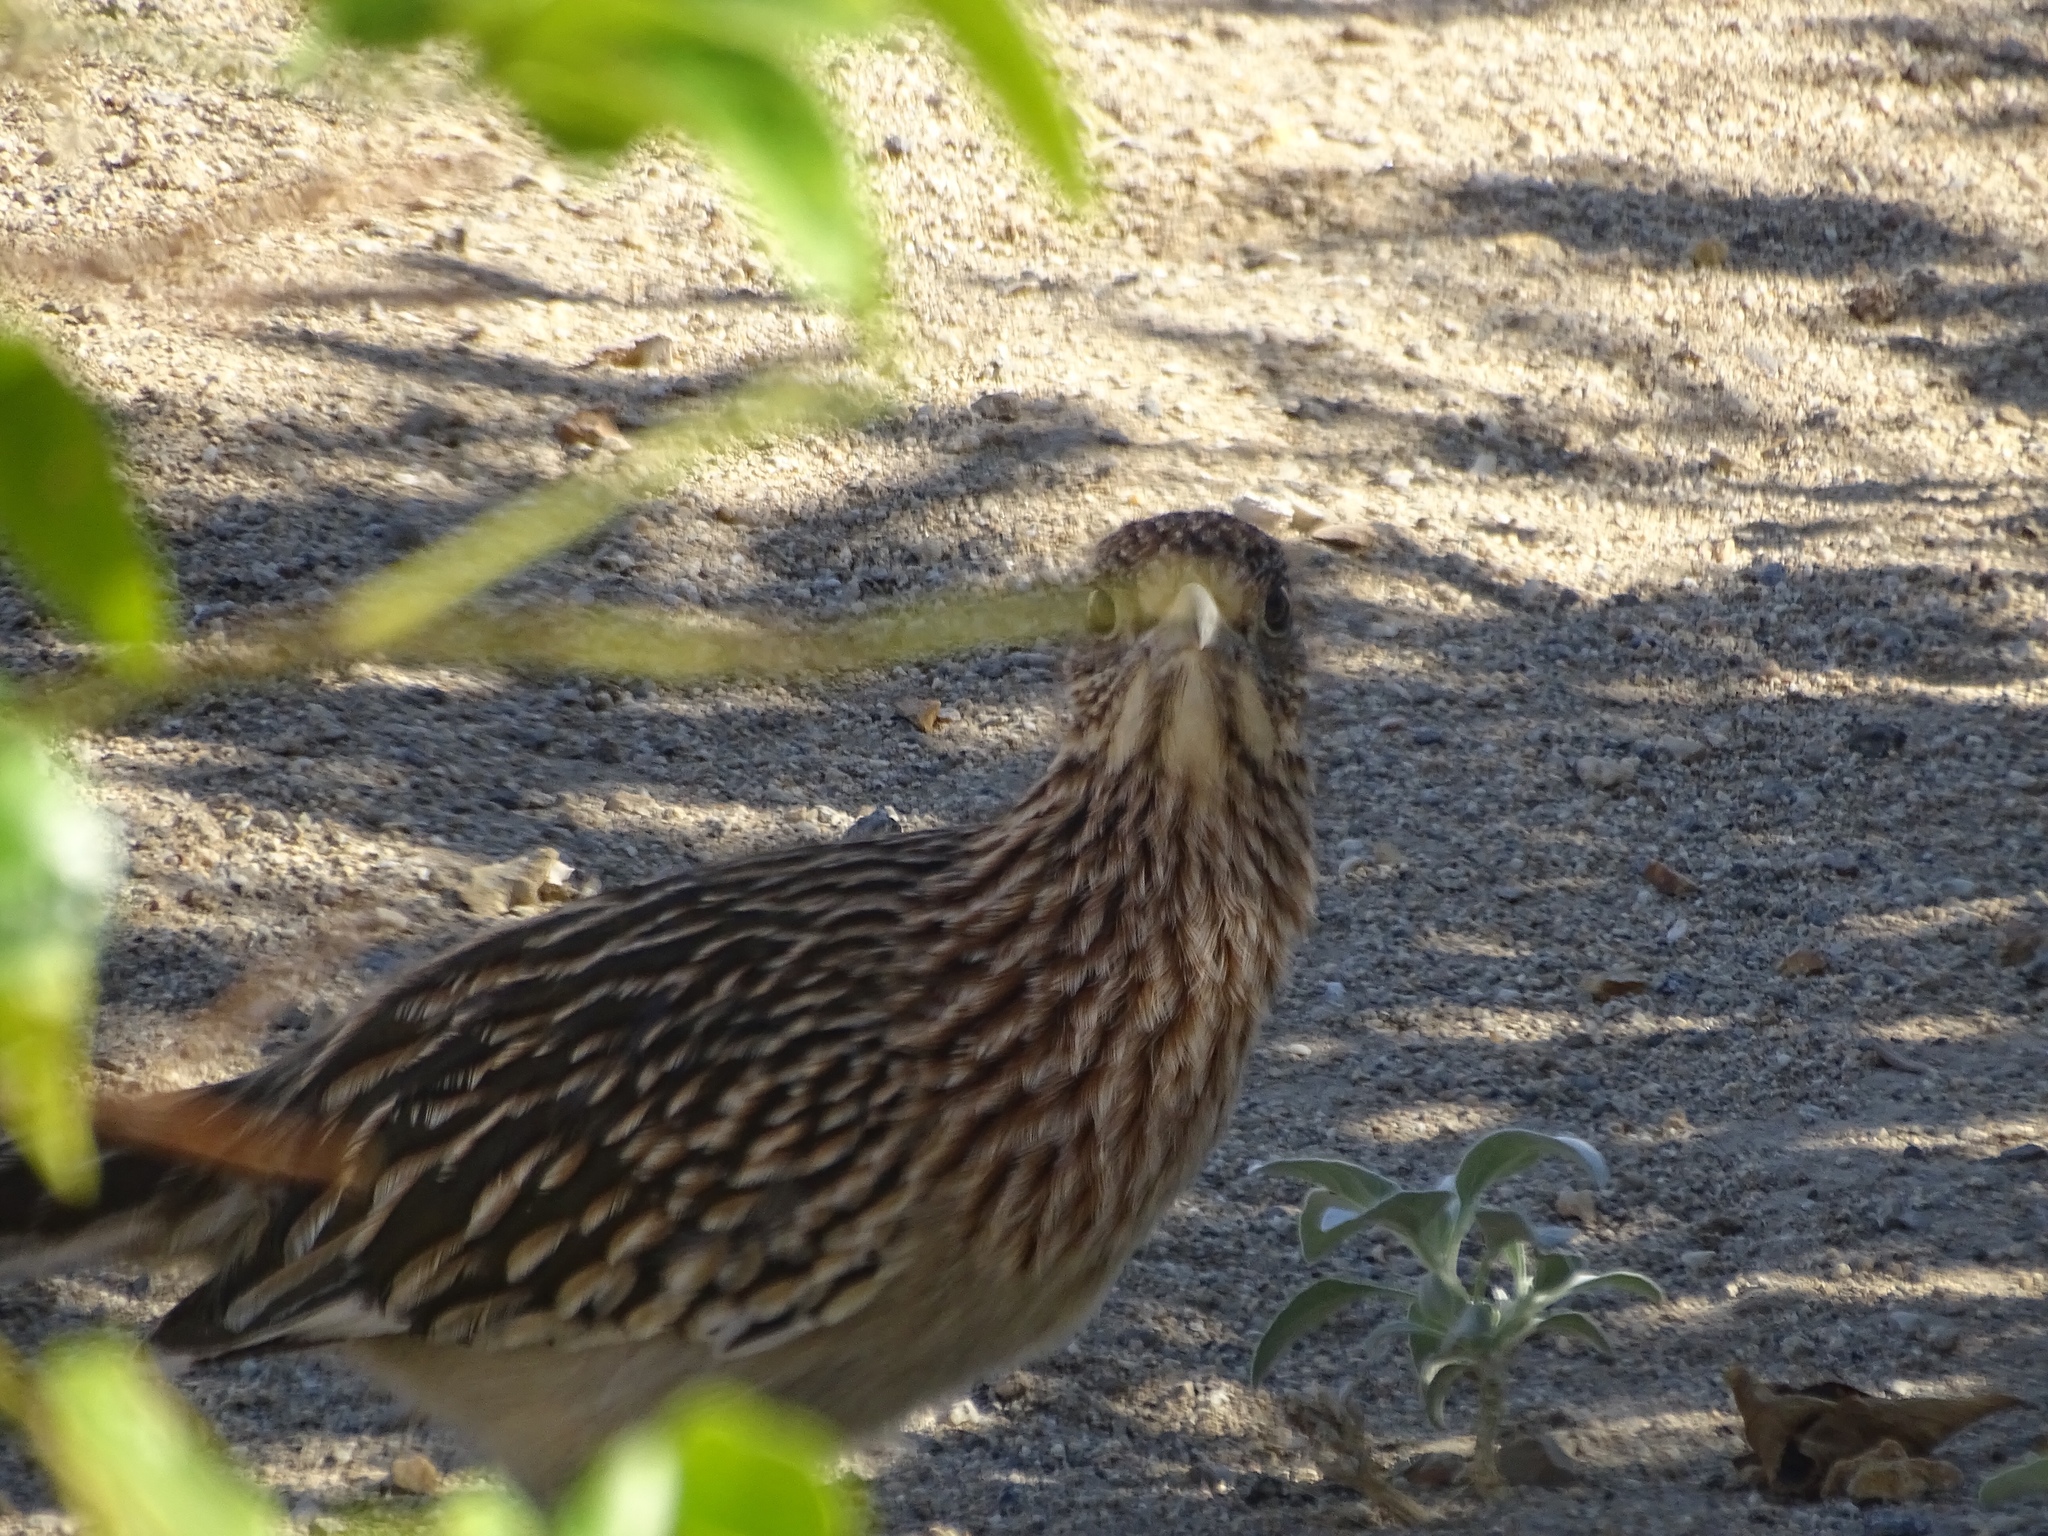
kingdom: Animalia
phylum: Chordata
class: Aves
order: Cuculiformes
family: Cuculidae
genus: Geococcyx
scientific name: Geococcyx californianus
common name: Greater roadrunner
